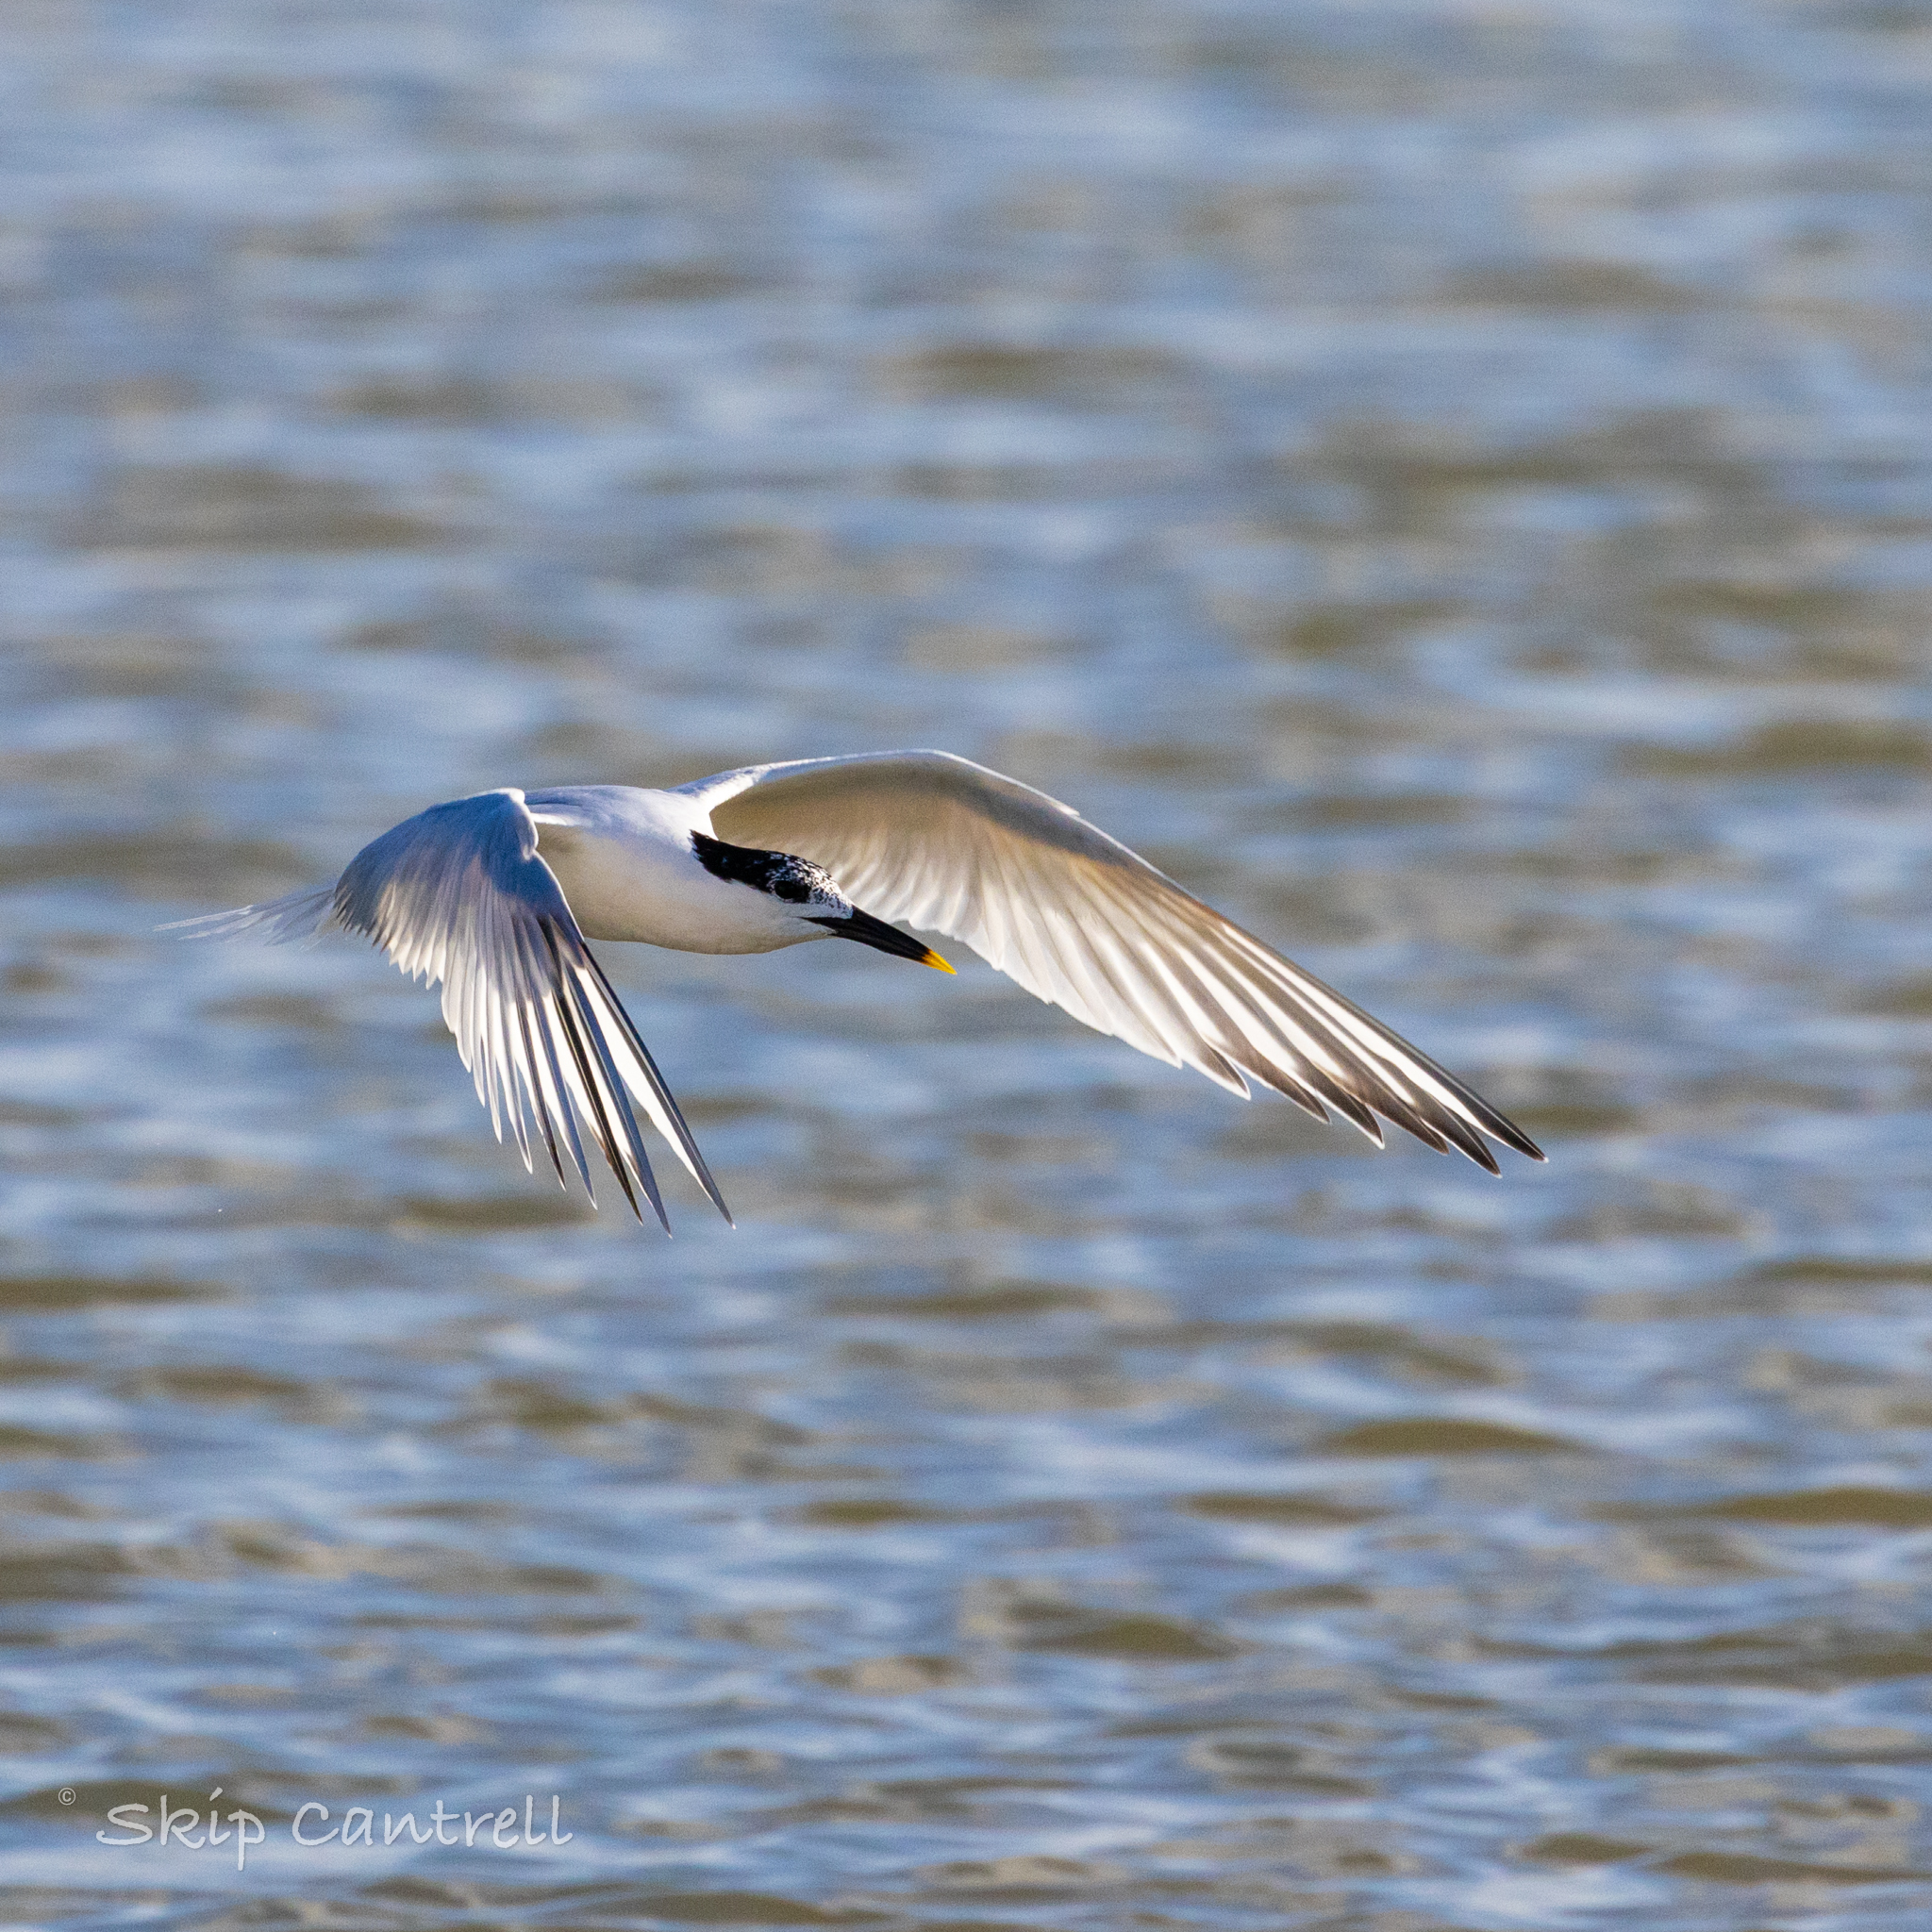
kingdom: Animalia
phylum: Chordata
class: Aves
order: Charadriiformes
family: Laridae
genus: Thalasseus
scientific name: Thalasseus sandvicensis
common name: Sandwich tern
